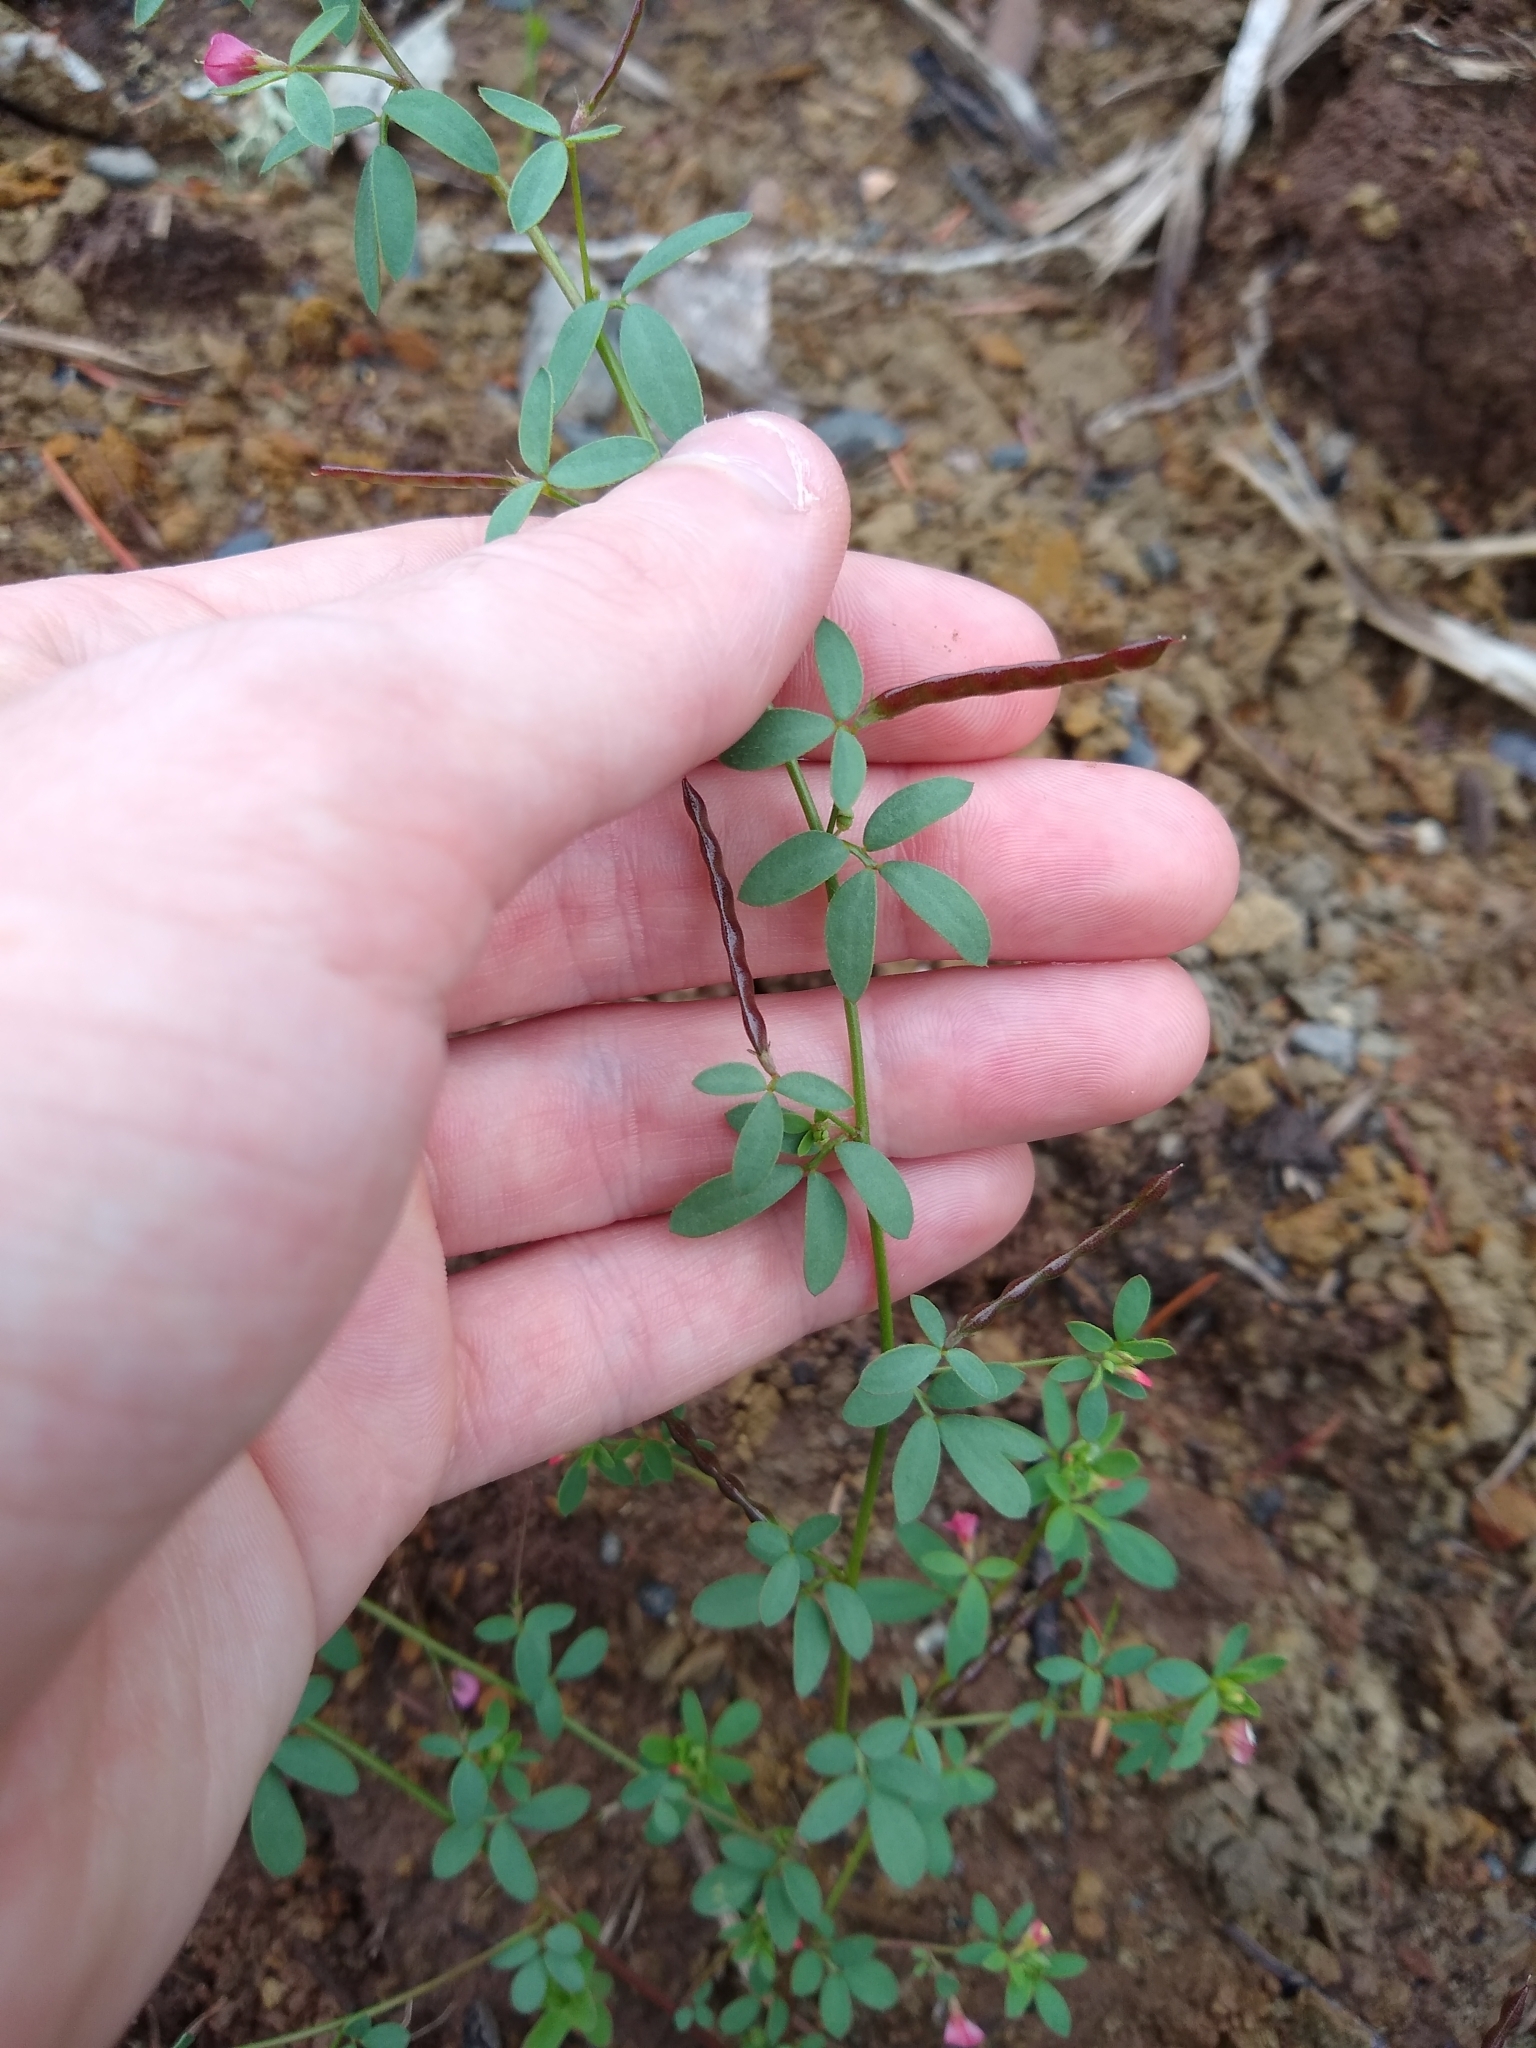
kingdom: Plantae
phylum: Tracheophyta
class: Magnoliopsida
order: Fabales
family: Fabaceae
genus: Acmispon
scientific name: Acmispon parviflorus
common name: Desert deer-vetch
